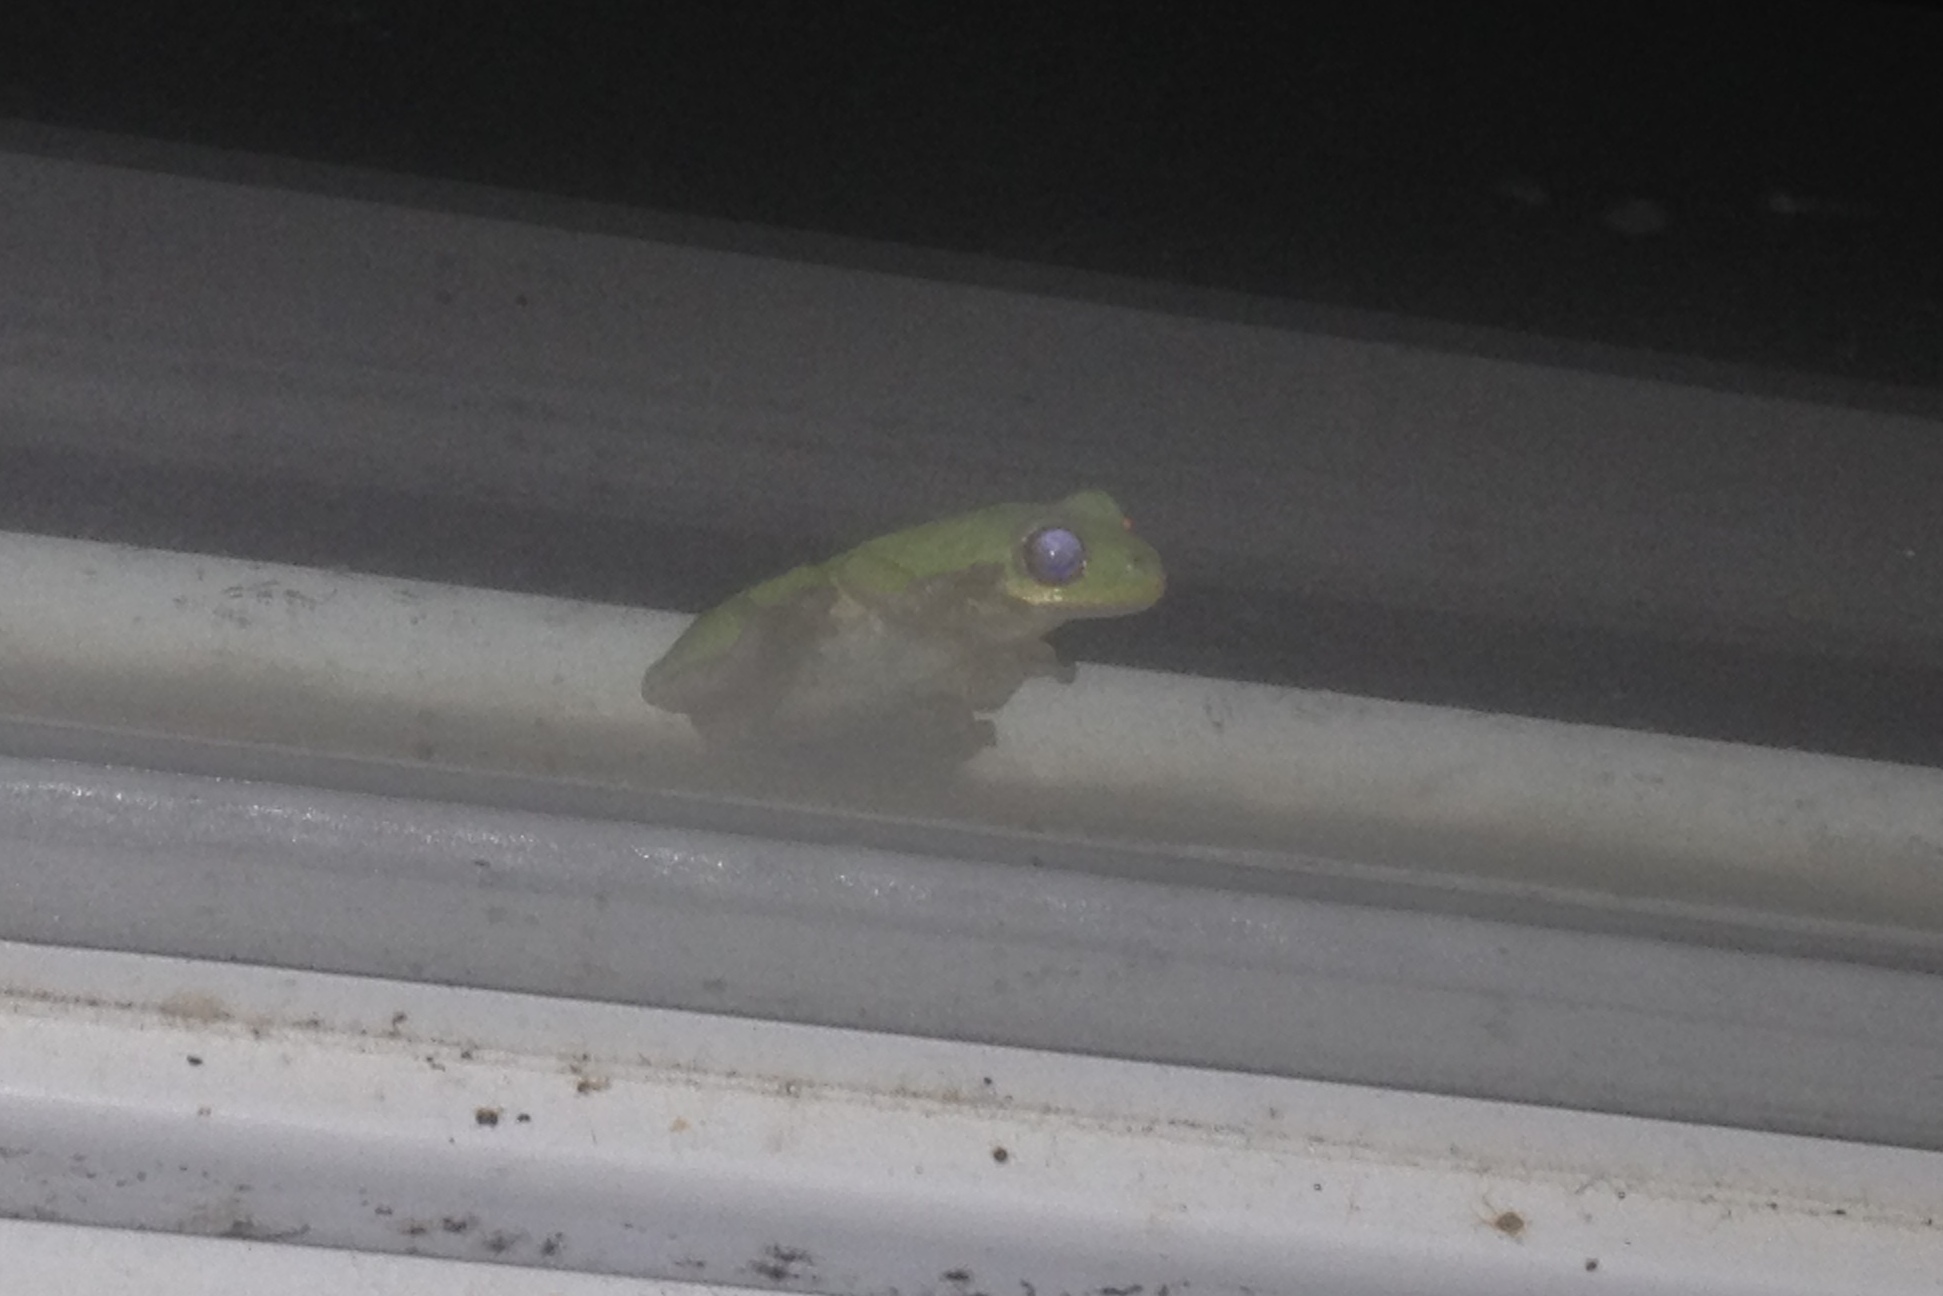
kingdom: Animalia
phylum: Chordata
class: Amphibia
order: Anura
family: Hylidae
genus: Dryophytes
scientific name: Dryophytes squirellus
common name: Squirrel treefrog
